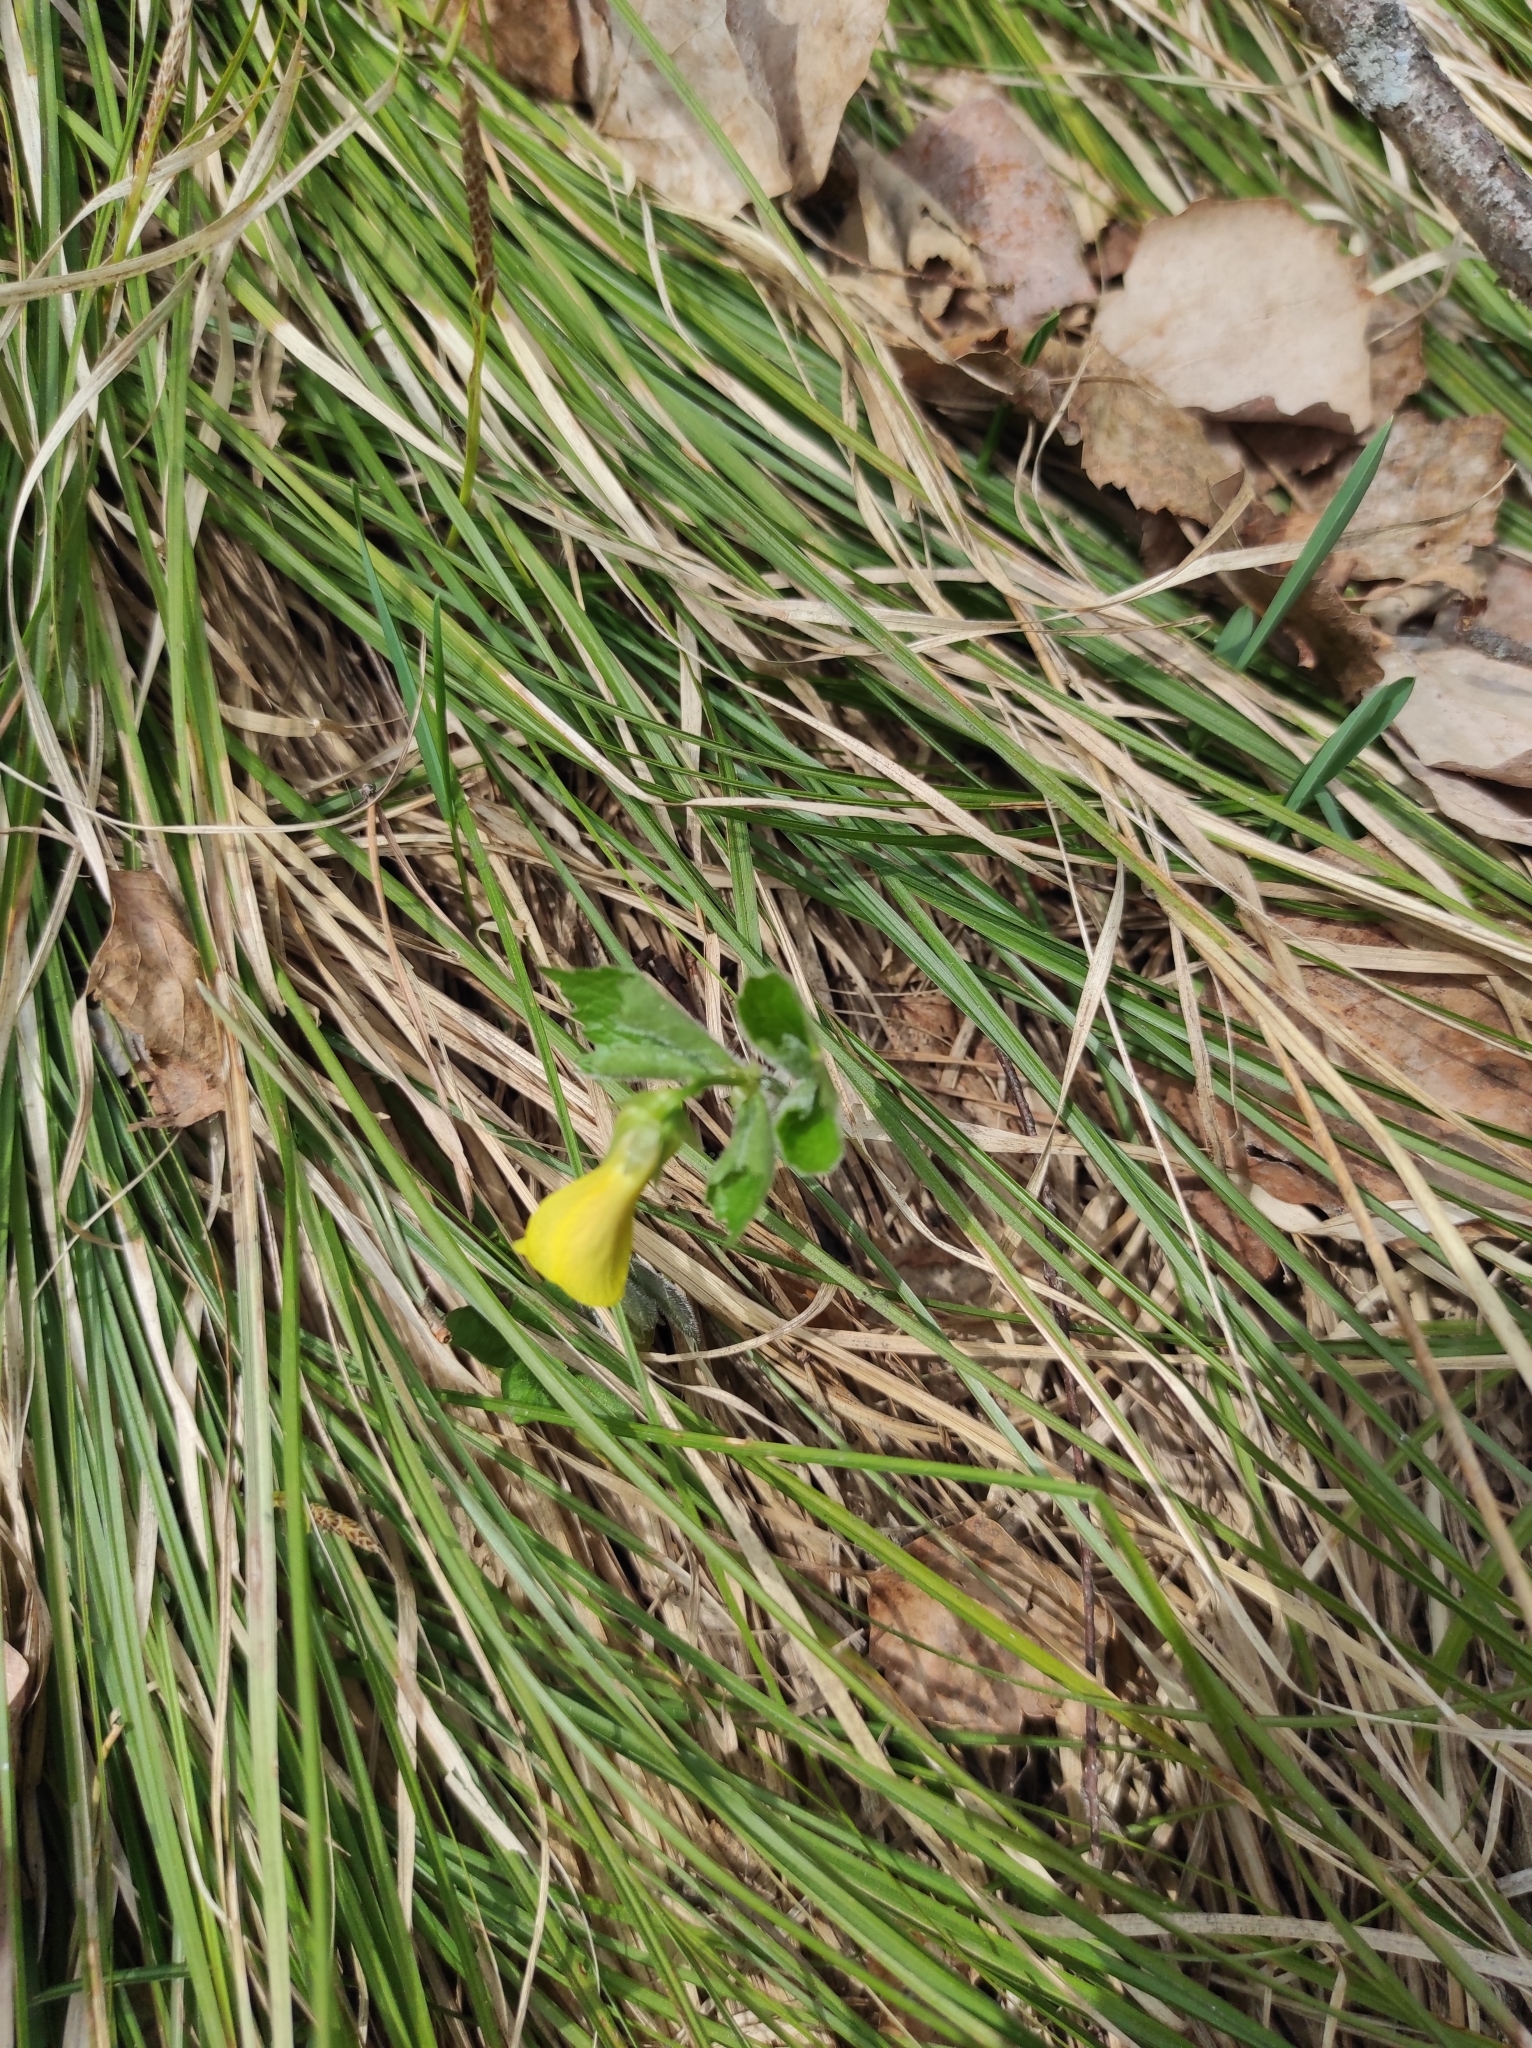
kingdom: Plantae
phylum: Tracheophyta
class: Magnoliopsida
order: Malpighiales
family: Violaceae
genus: Viola
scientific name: Viola uniflora
